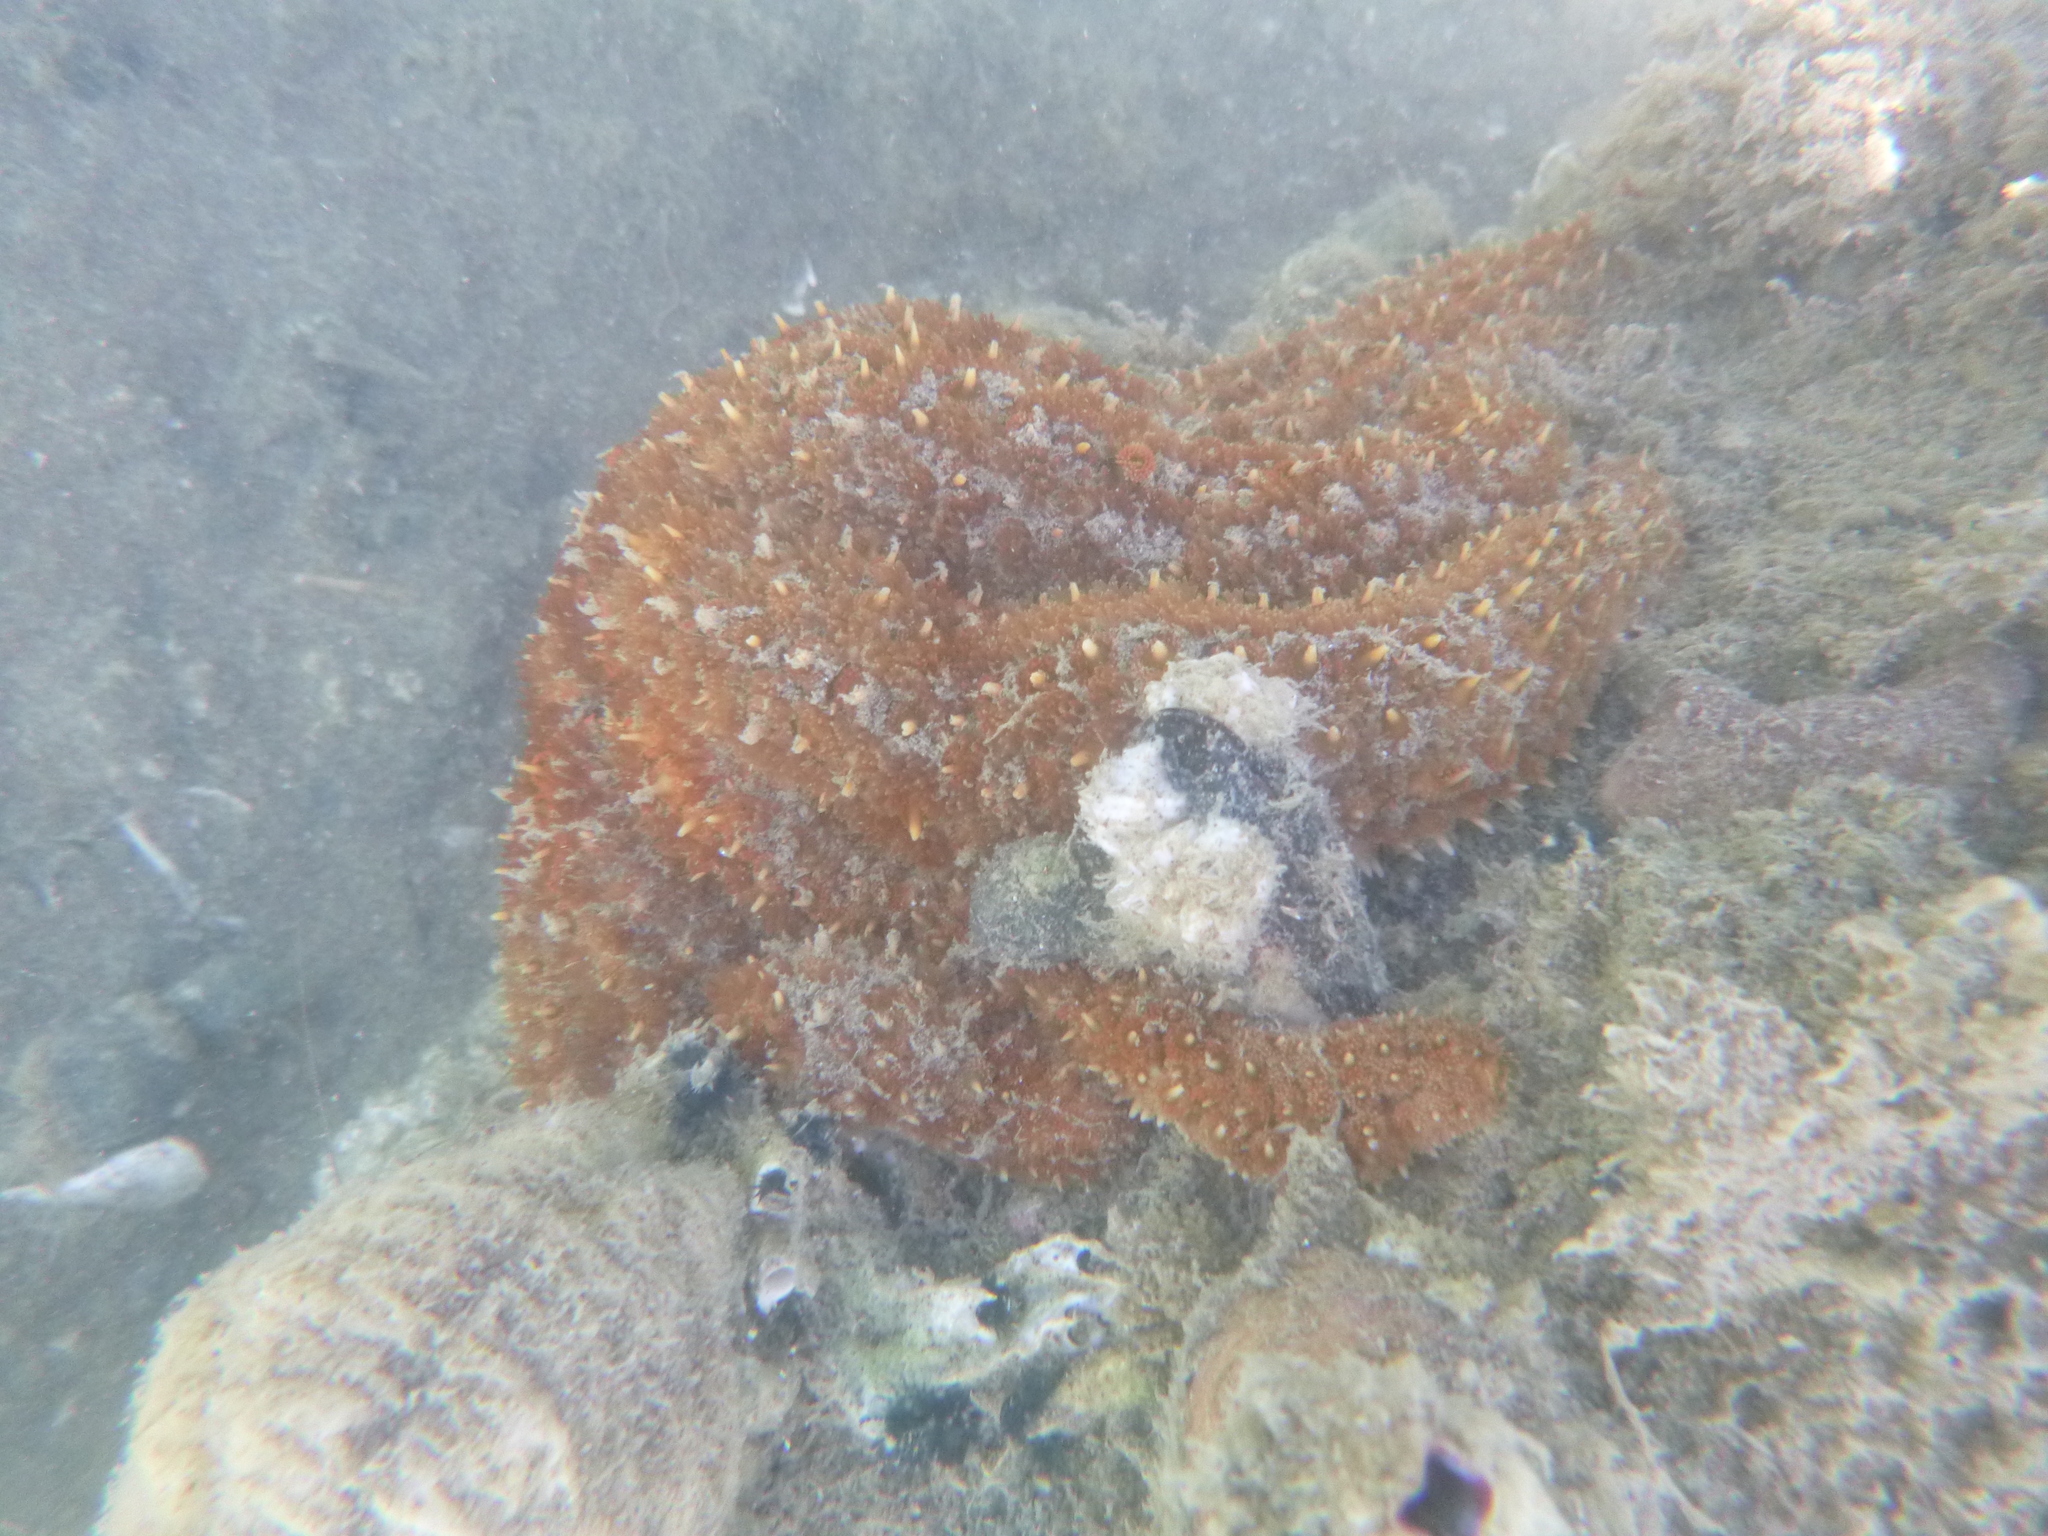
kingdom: Animalia
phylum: Echinodermata
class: Asteroidea
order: Forcipulatida
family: Asteriidae
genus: Coscinasterias
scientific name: Coscinasterias muricata
